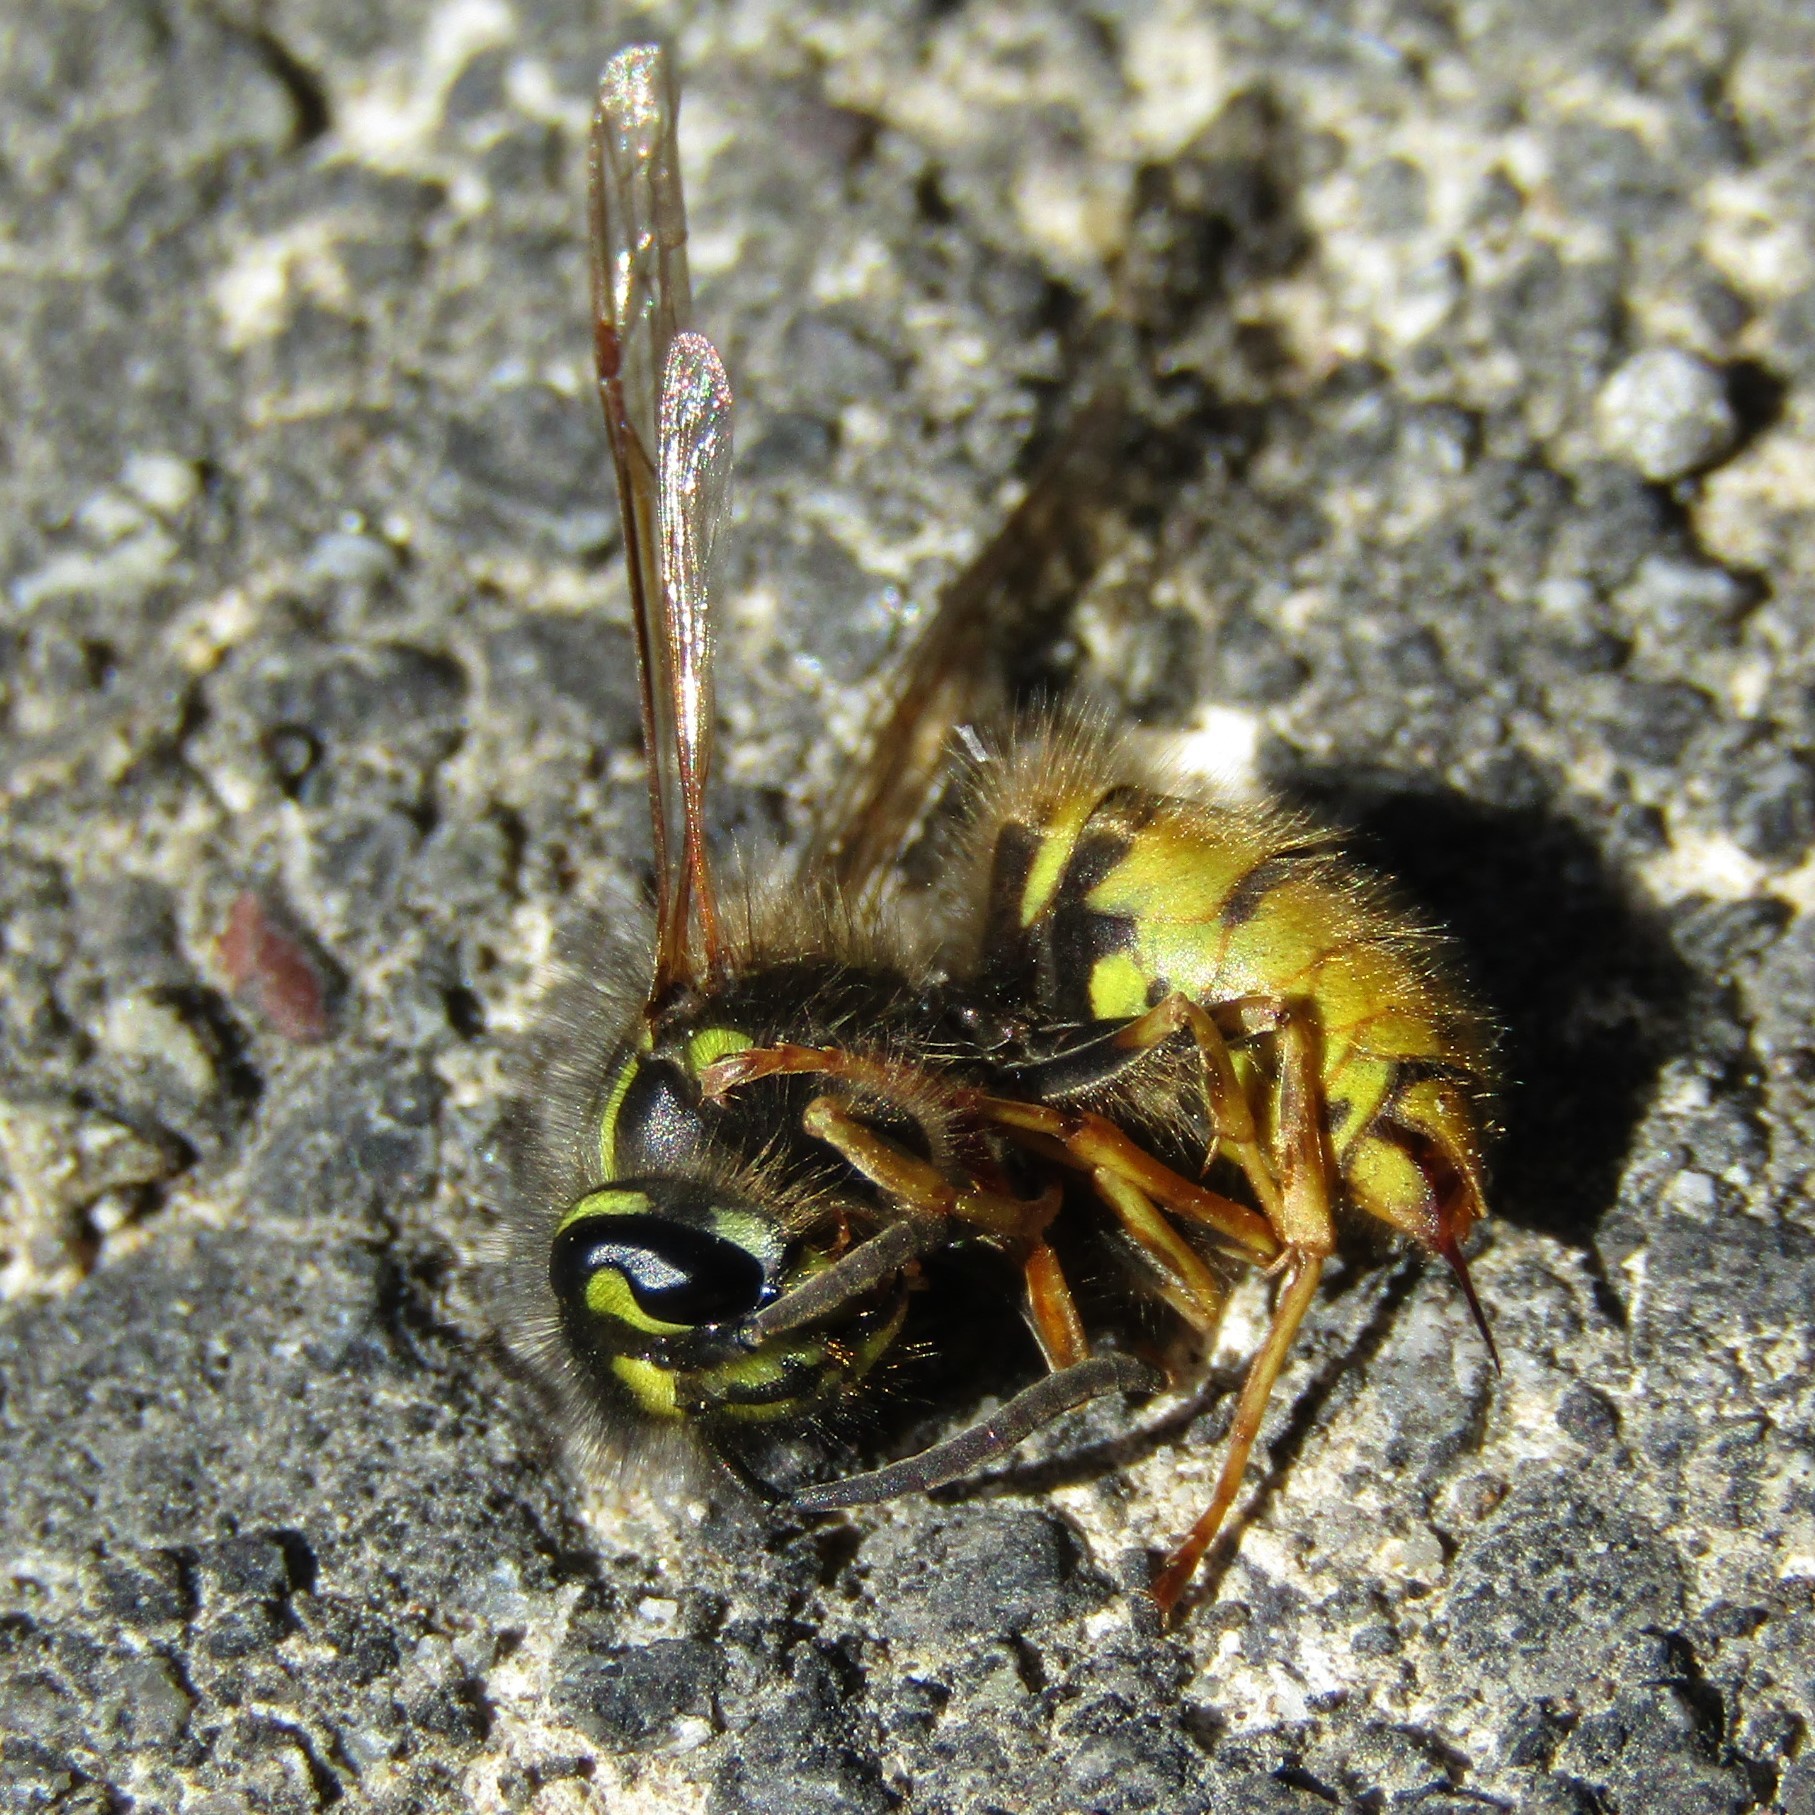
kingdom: Animalia
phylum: Arthropoda
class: Insecta
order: Hymenoptera
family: Vespidae
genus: Vespula
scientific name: Vespula vulgaris
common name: Common wasp
